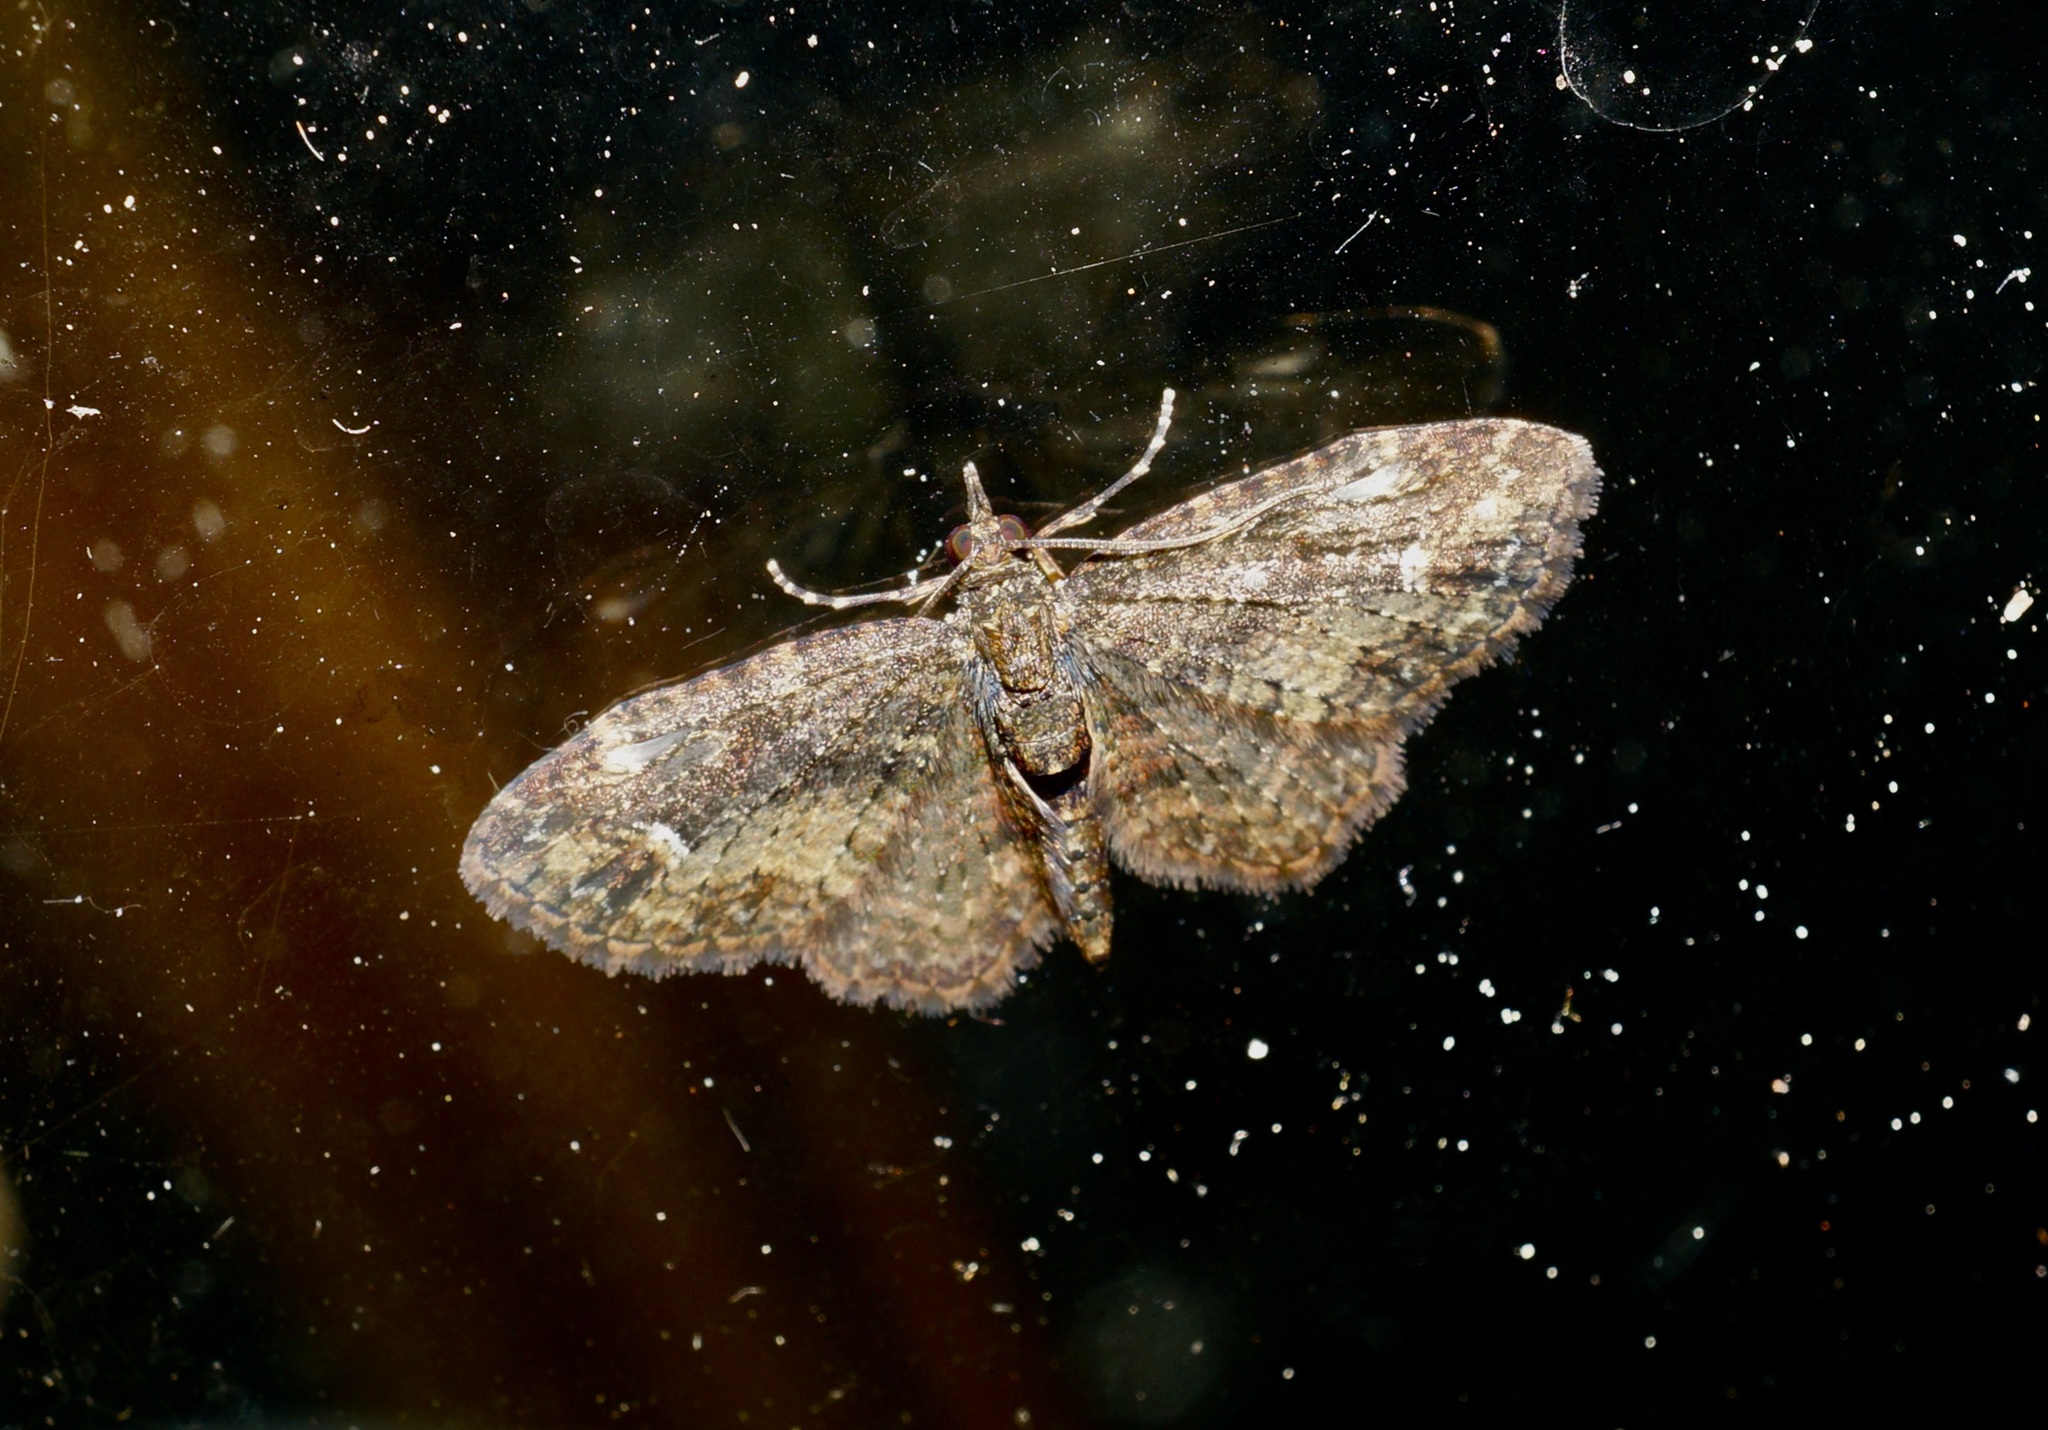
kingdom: Animalia
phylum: Arthropoda
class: Insecta
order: Lepidoptera
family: Geometridae
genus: Pasiphilodes
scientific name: Pasiphilodes testulata
